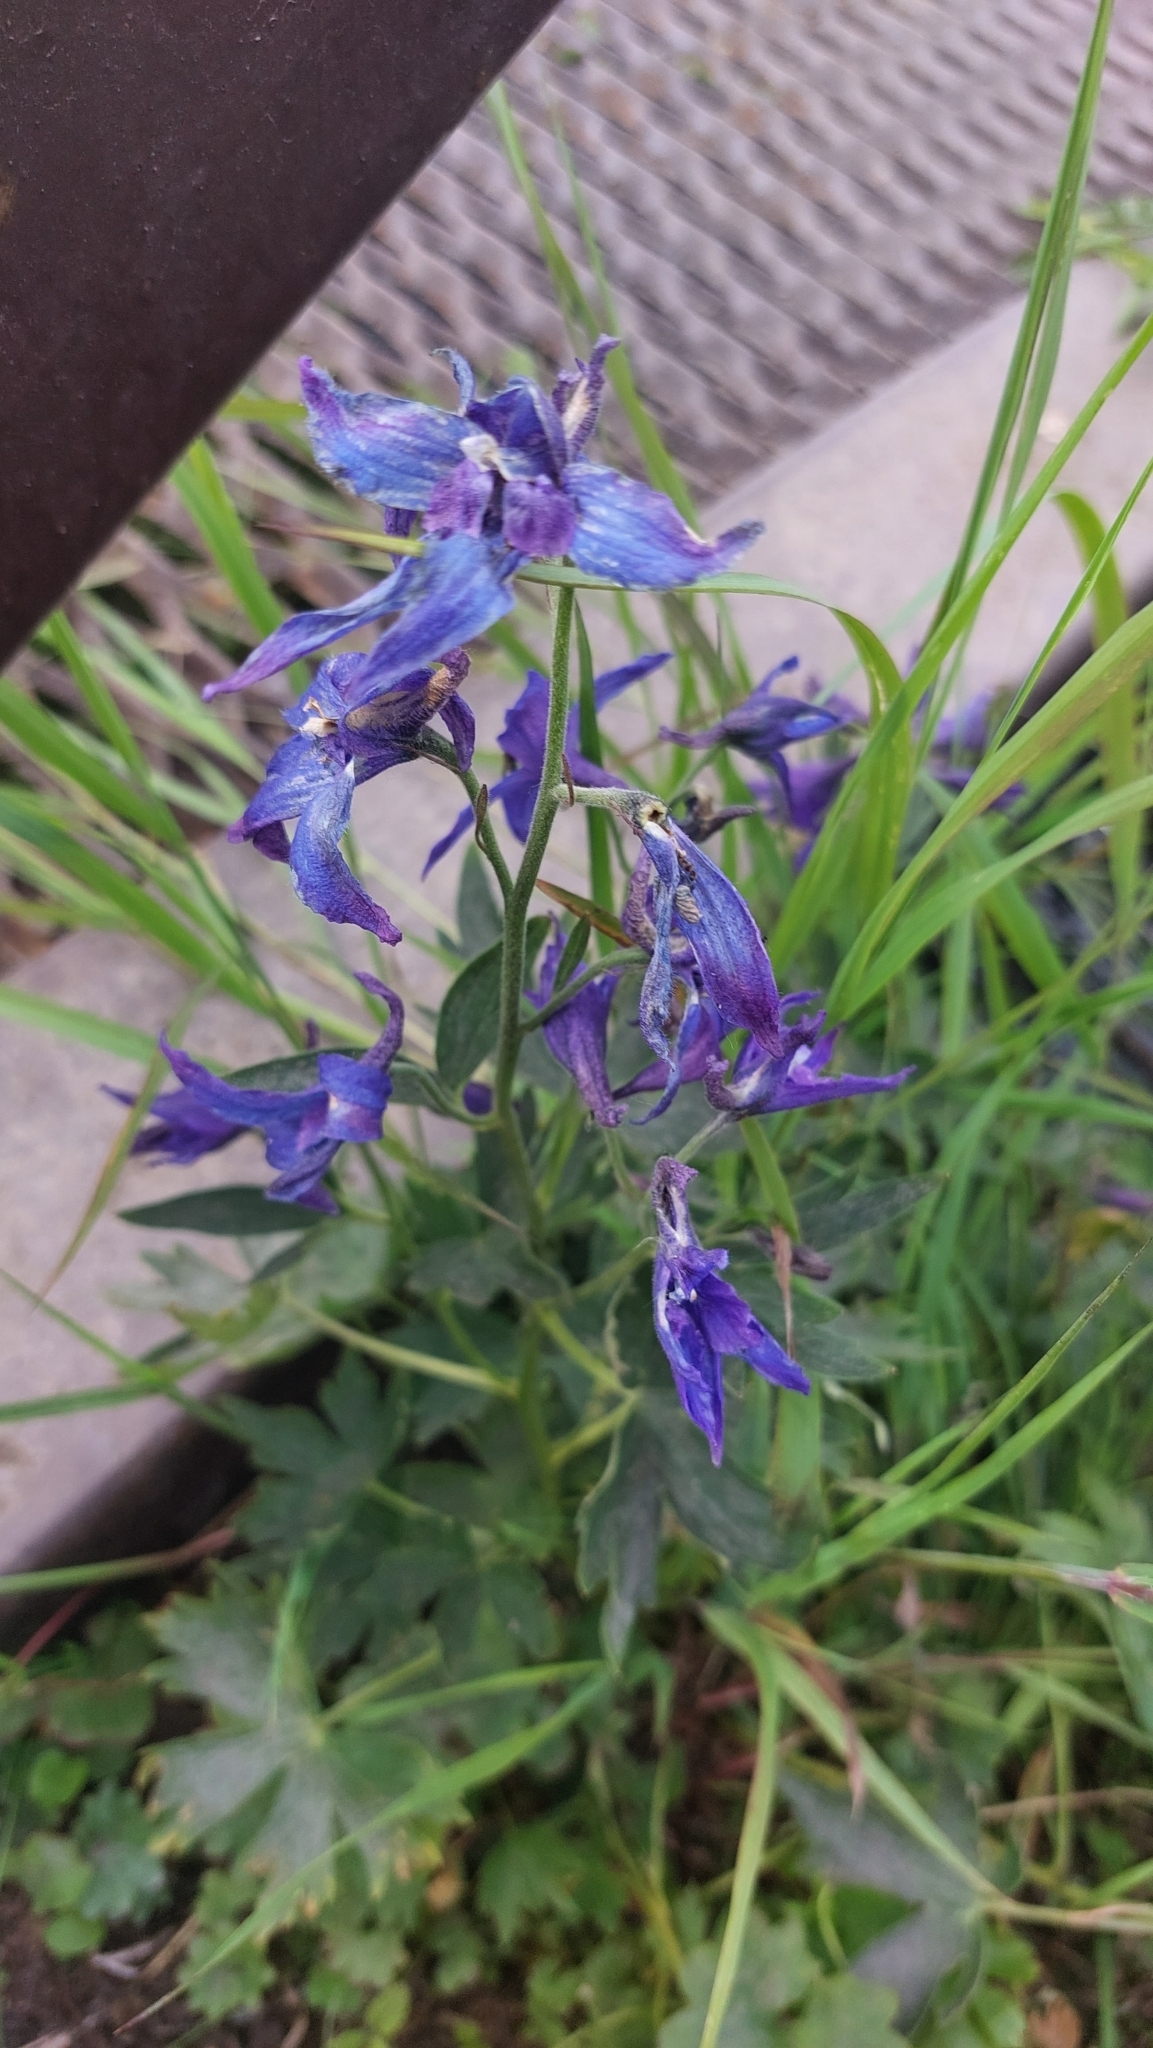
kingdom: Plantae
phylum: Tracheophyta
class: Magnoliopsida
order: Ranunculales
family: Ranunculaceae
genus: Delphinium
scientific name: Delphinium brachycentrum
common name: Arctic larkspur
